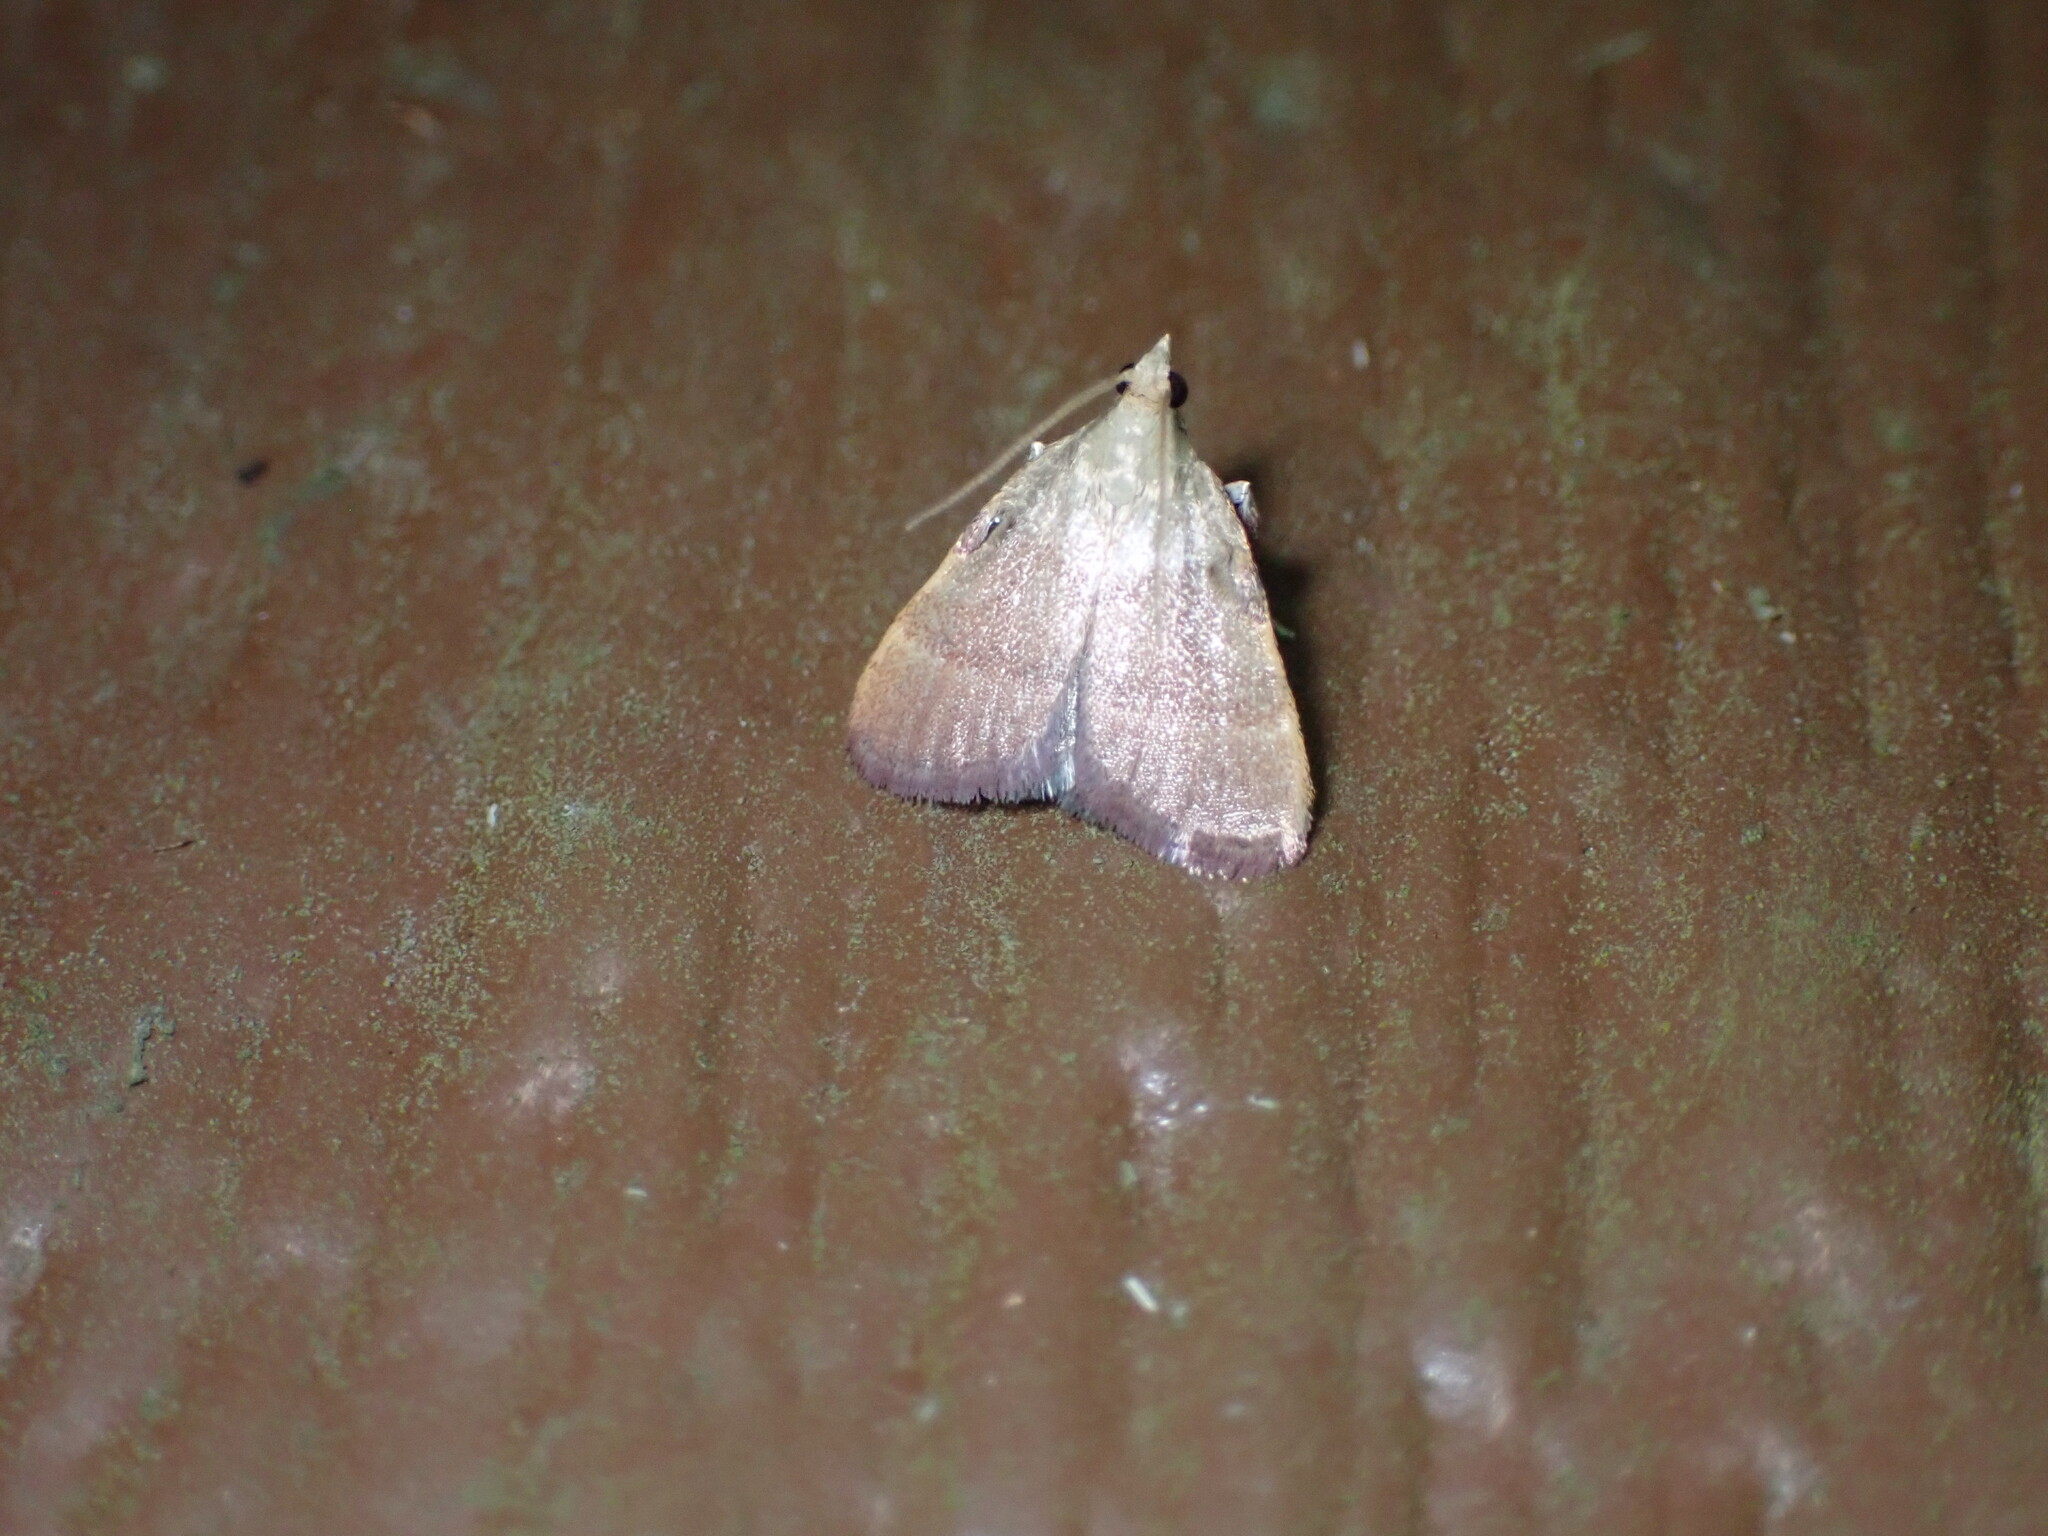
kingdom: Animalia
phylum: Arthropoda
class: Insecta
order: Lepidoptera
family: Pyralidae
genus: Condylolomia
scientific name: Condylolomia participialis
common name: Drab condylolomia moth
